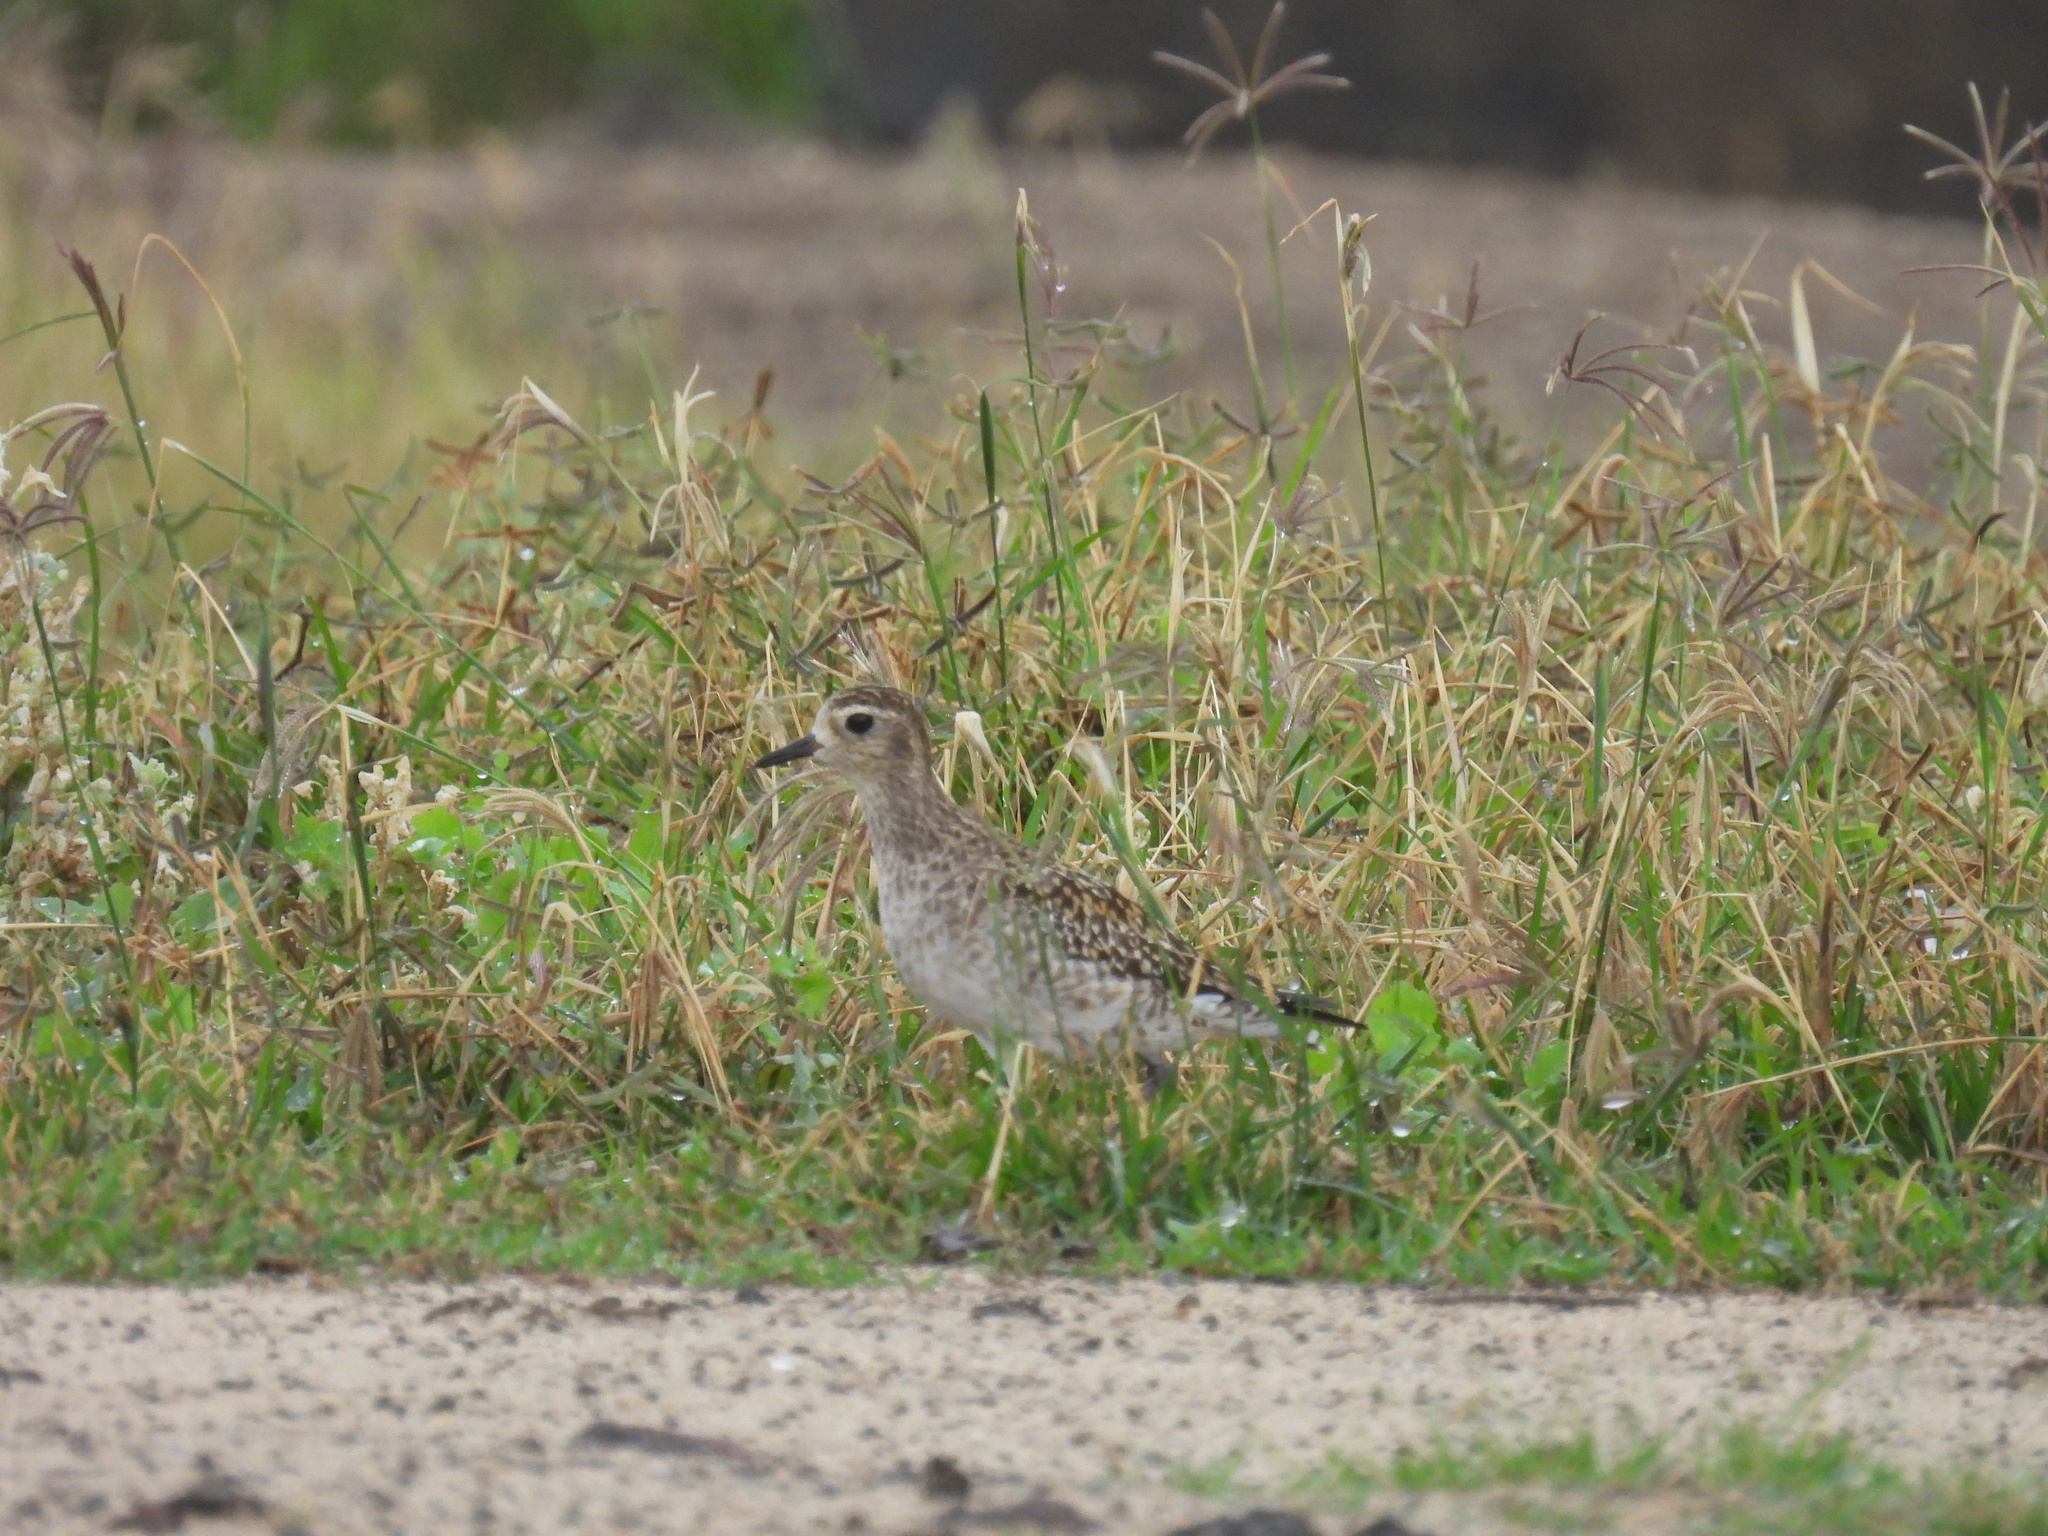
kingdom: Animalia
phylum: Chordata
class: Aves
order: Charadriiformes
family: Charadriidae
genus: Pluvialis
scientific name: Pluvialis fulva
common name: Pacific golden plover
